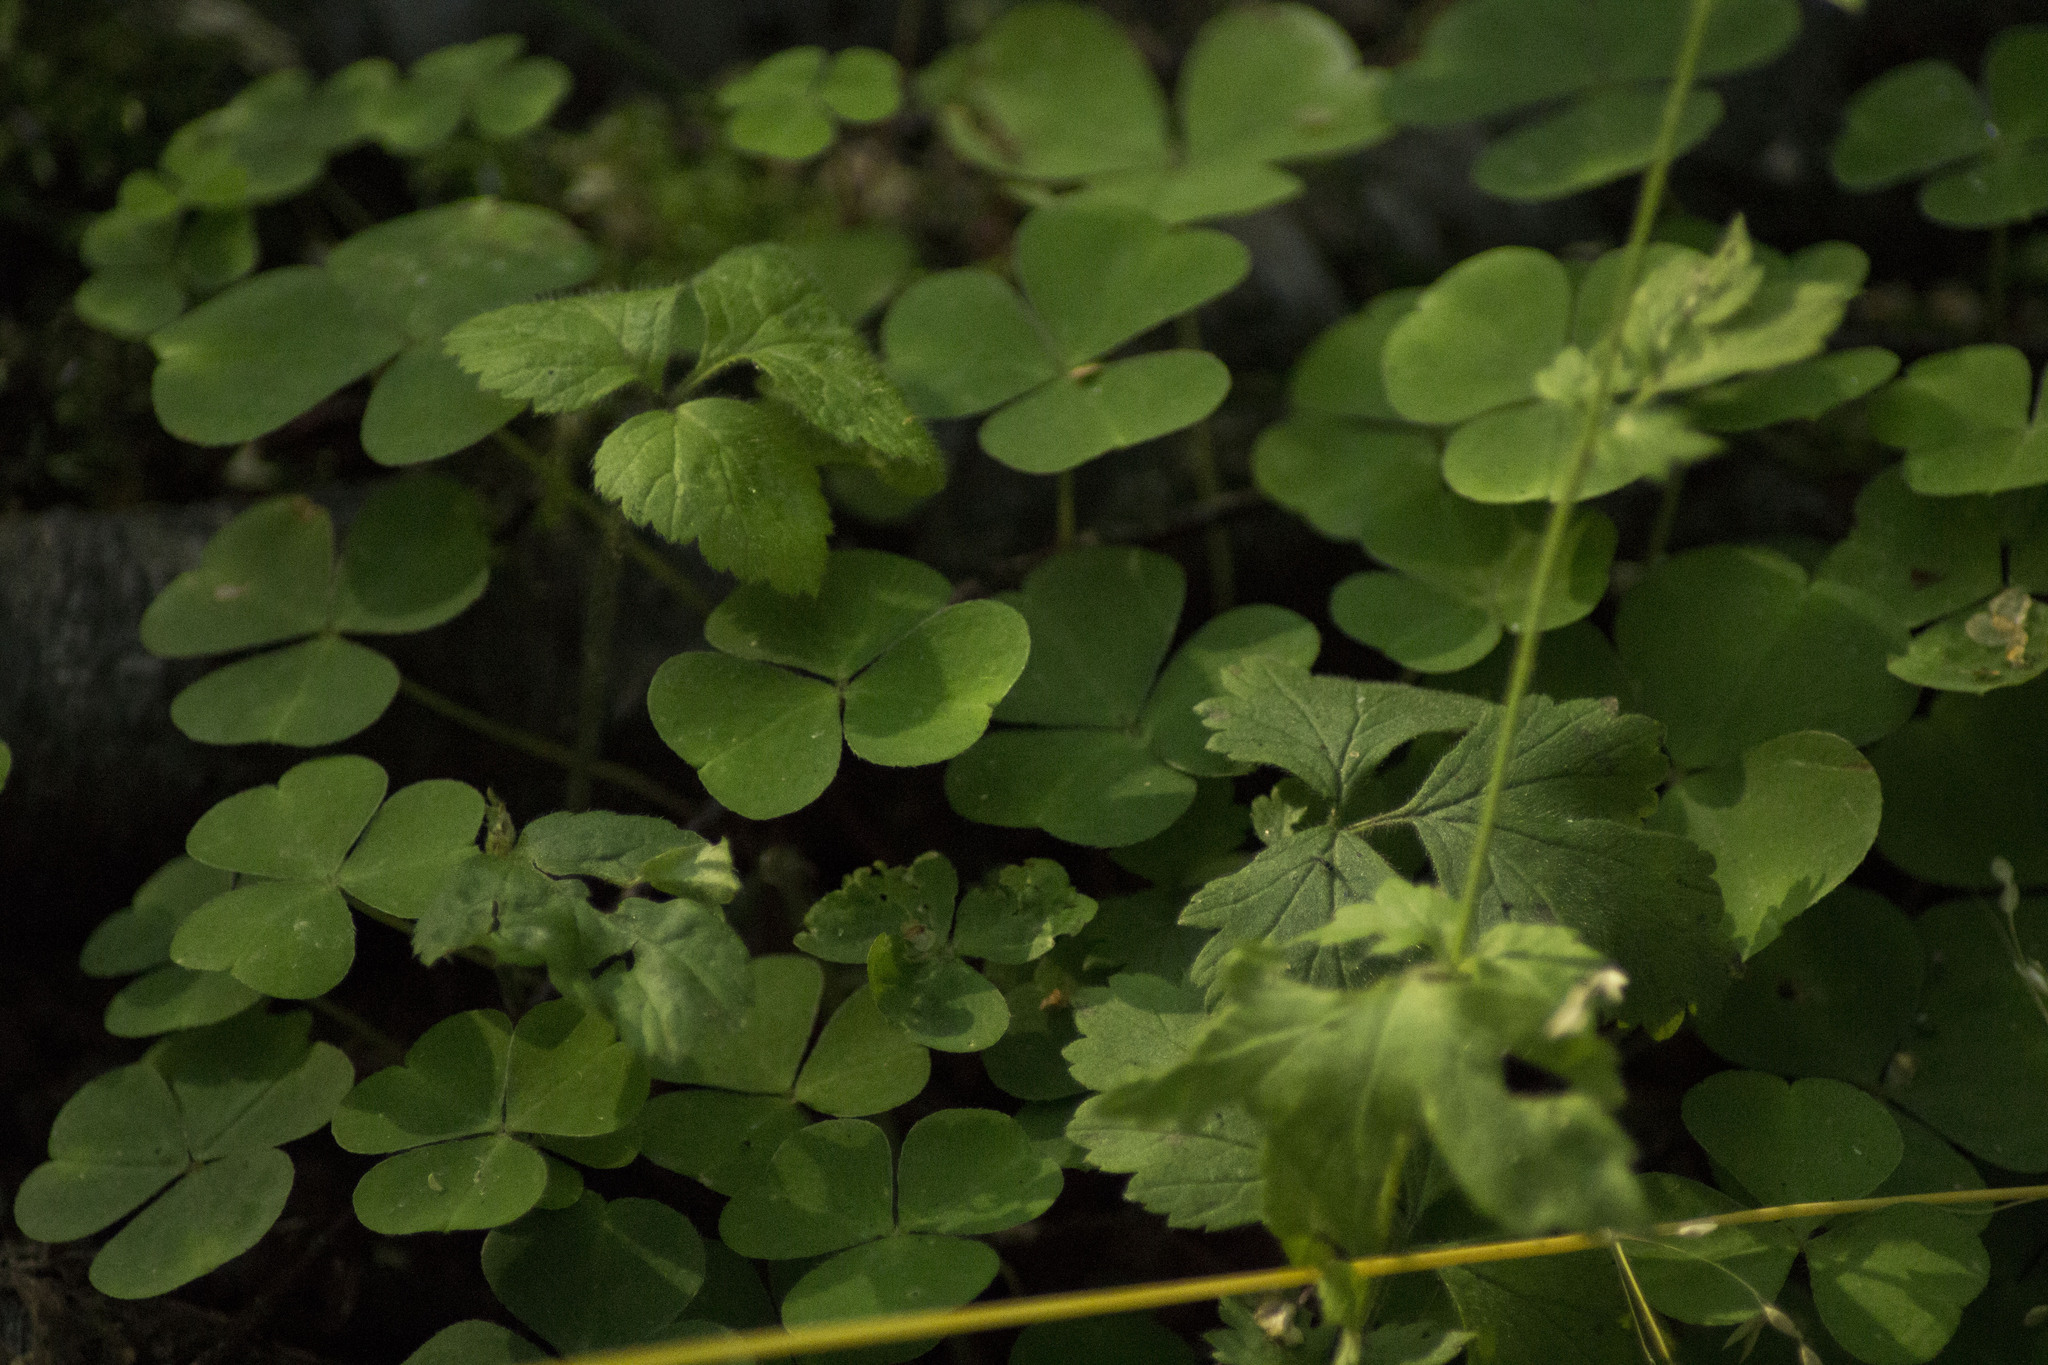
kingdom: Plantae
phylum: Tracheophyta
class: Magnoliopsida
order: Oxalidales
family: Oxalidaceae
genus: Oxalis
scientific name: Oxalis acetosella
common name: Wood-sorrel
